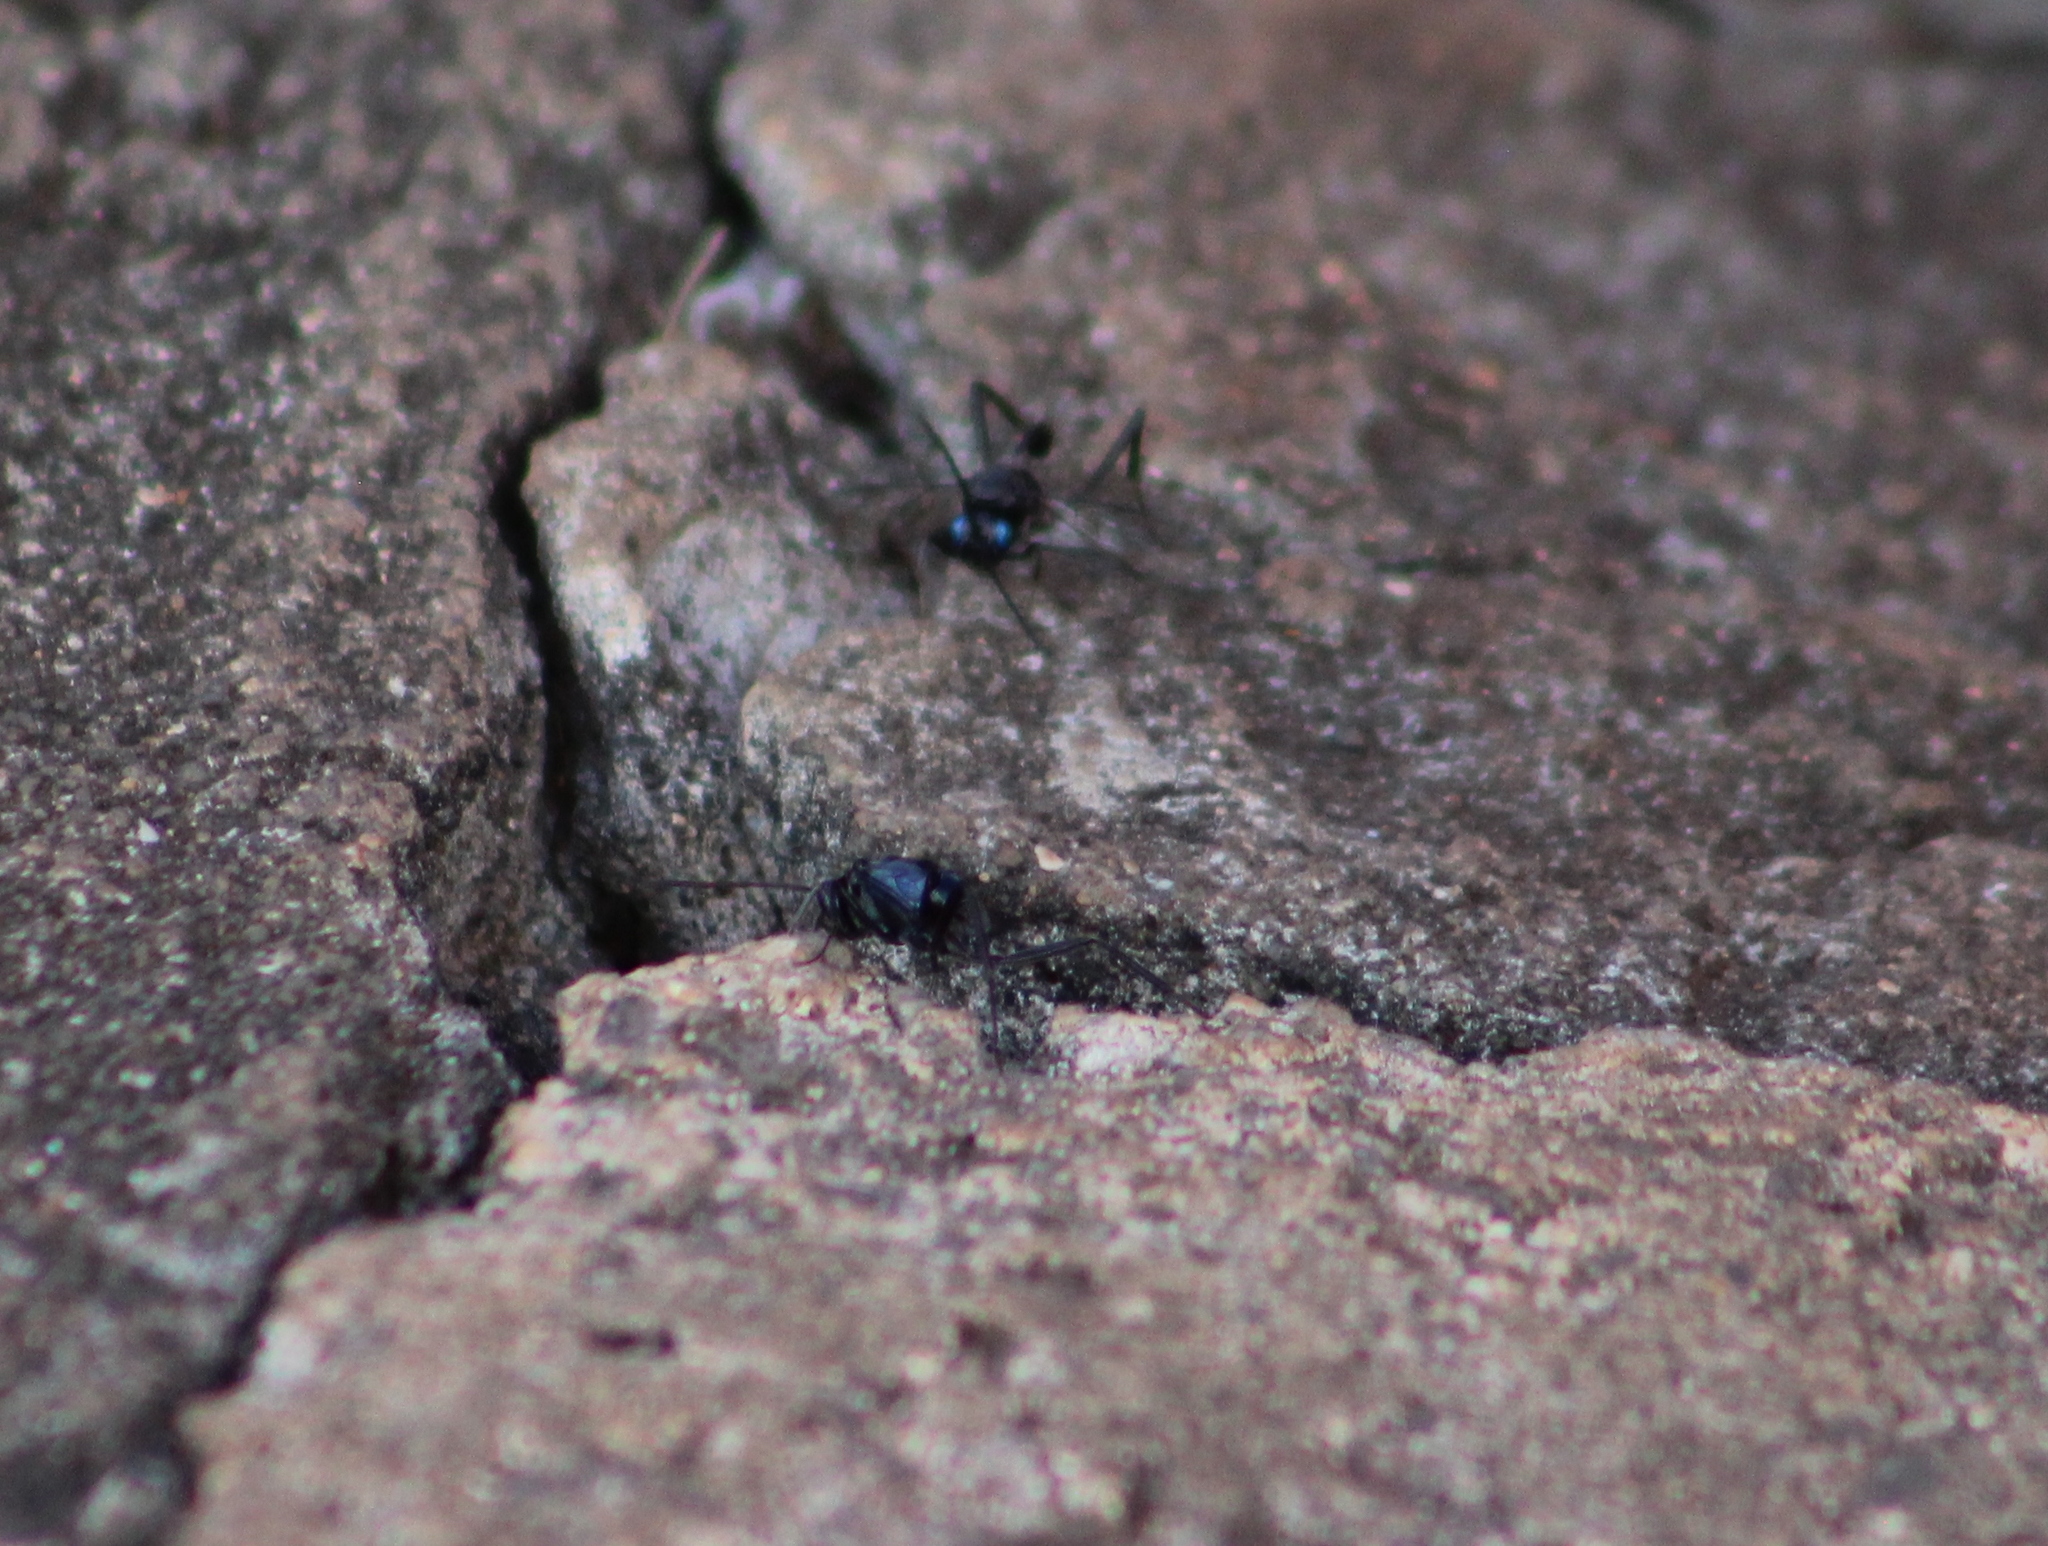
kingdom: Animalia
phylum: Arthropoda
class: Insecta
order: Hymenoptera
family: Evaniidae
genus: Evania
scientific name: Evania appendigaster
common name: Ensign wasp
